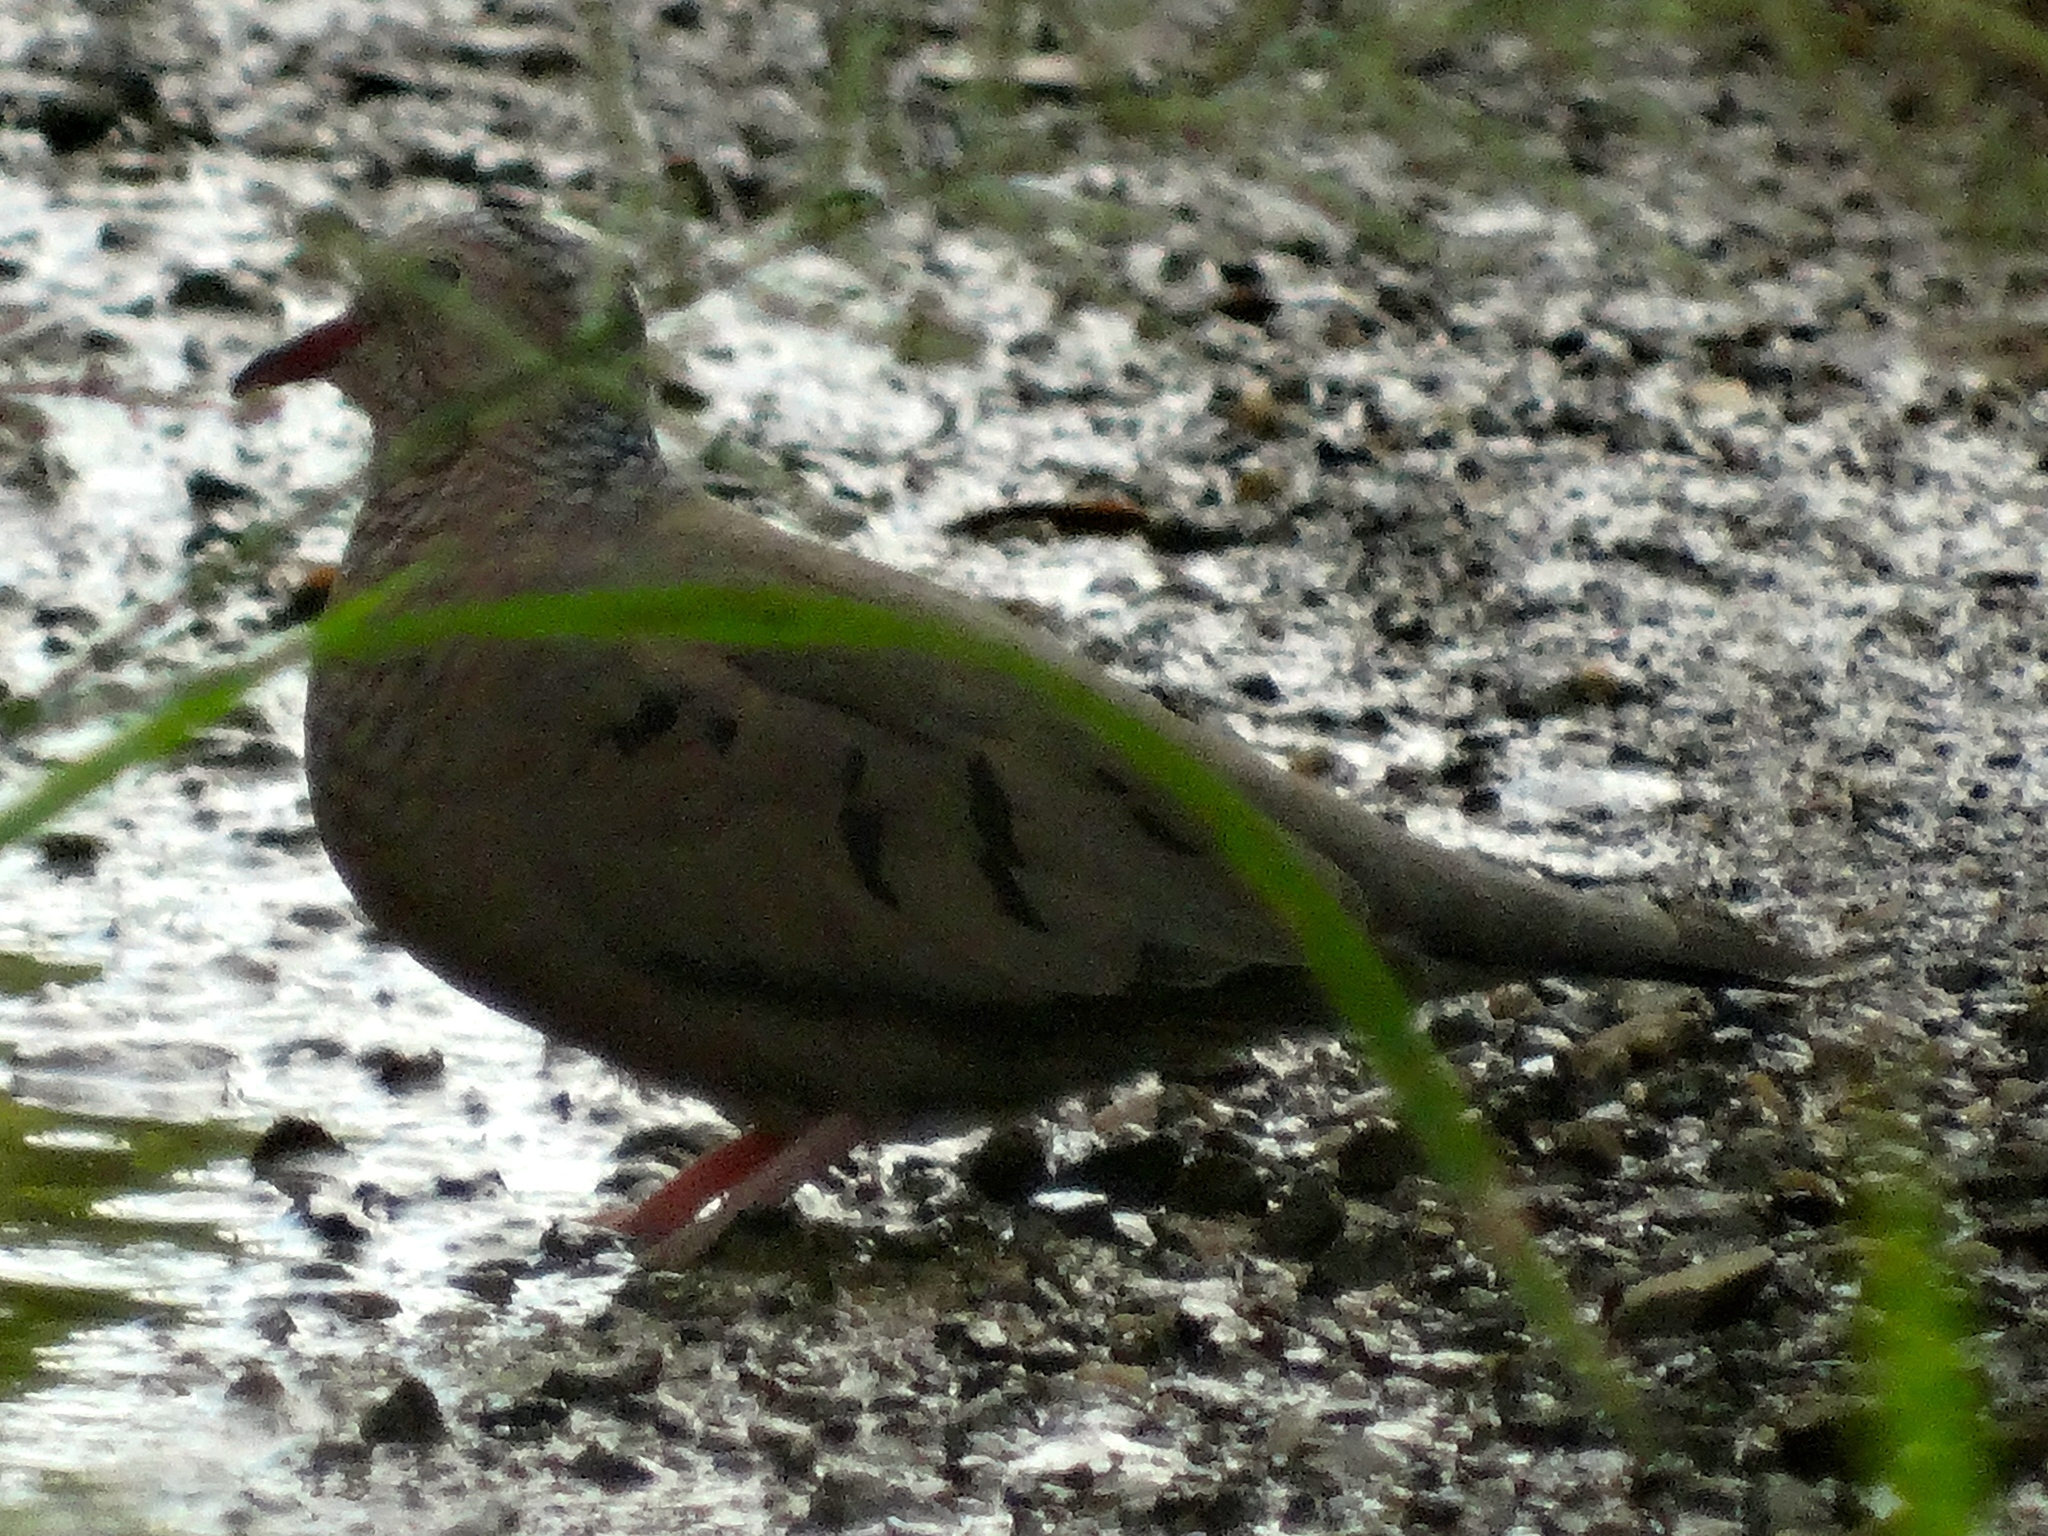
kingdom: Animalia
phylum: Chordata
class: Aves
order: Columbiformes
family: Columbidae
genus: Columbina
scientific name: Columbina passerina
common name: Common ground-dove
